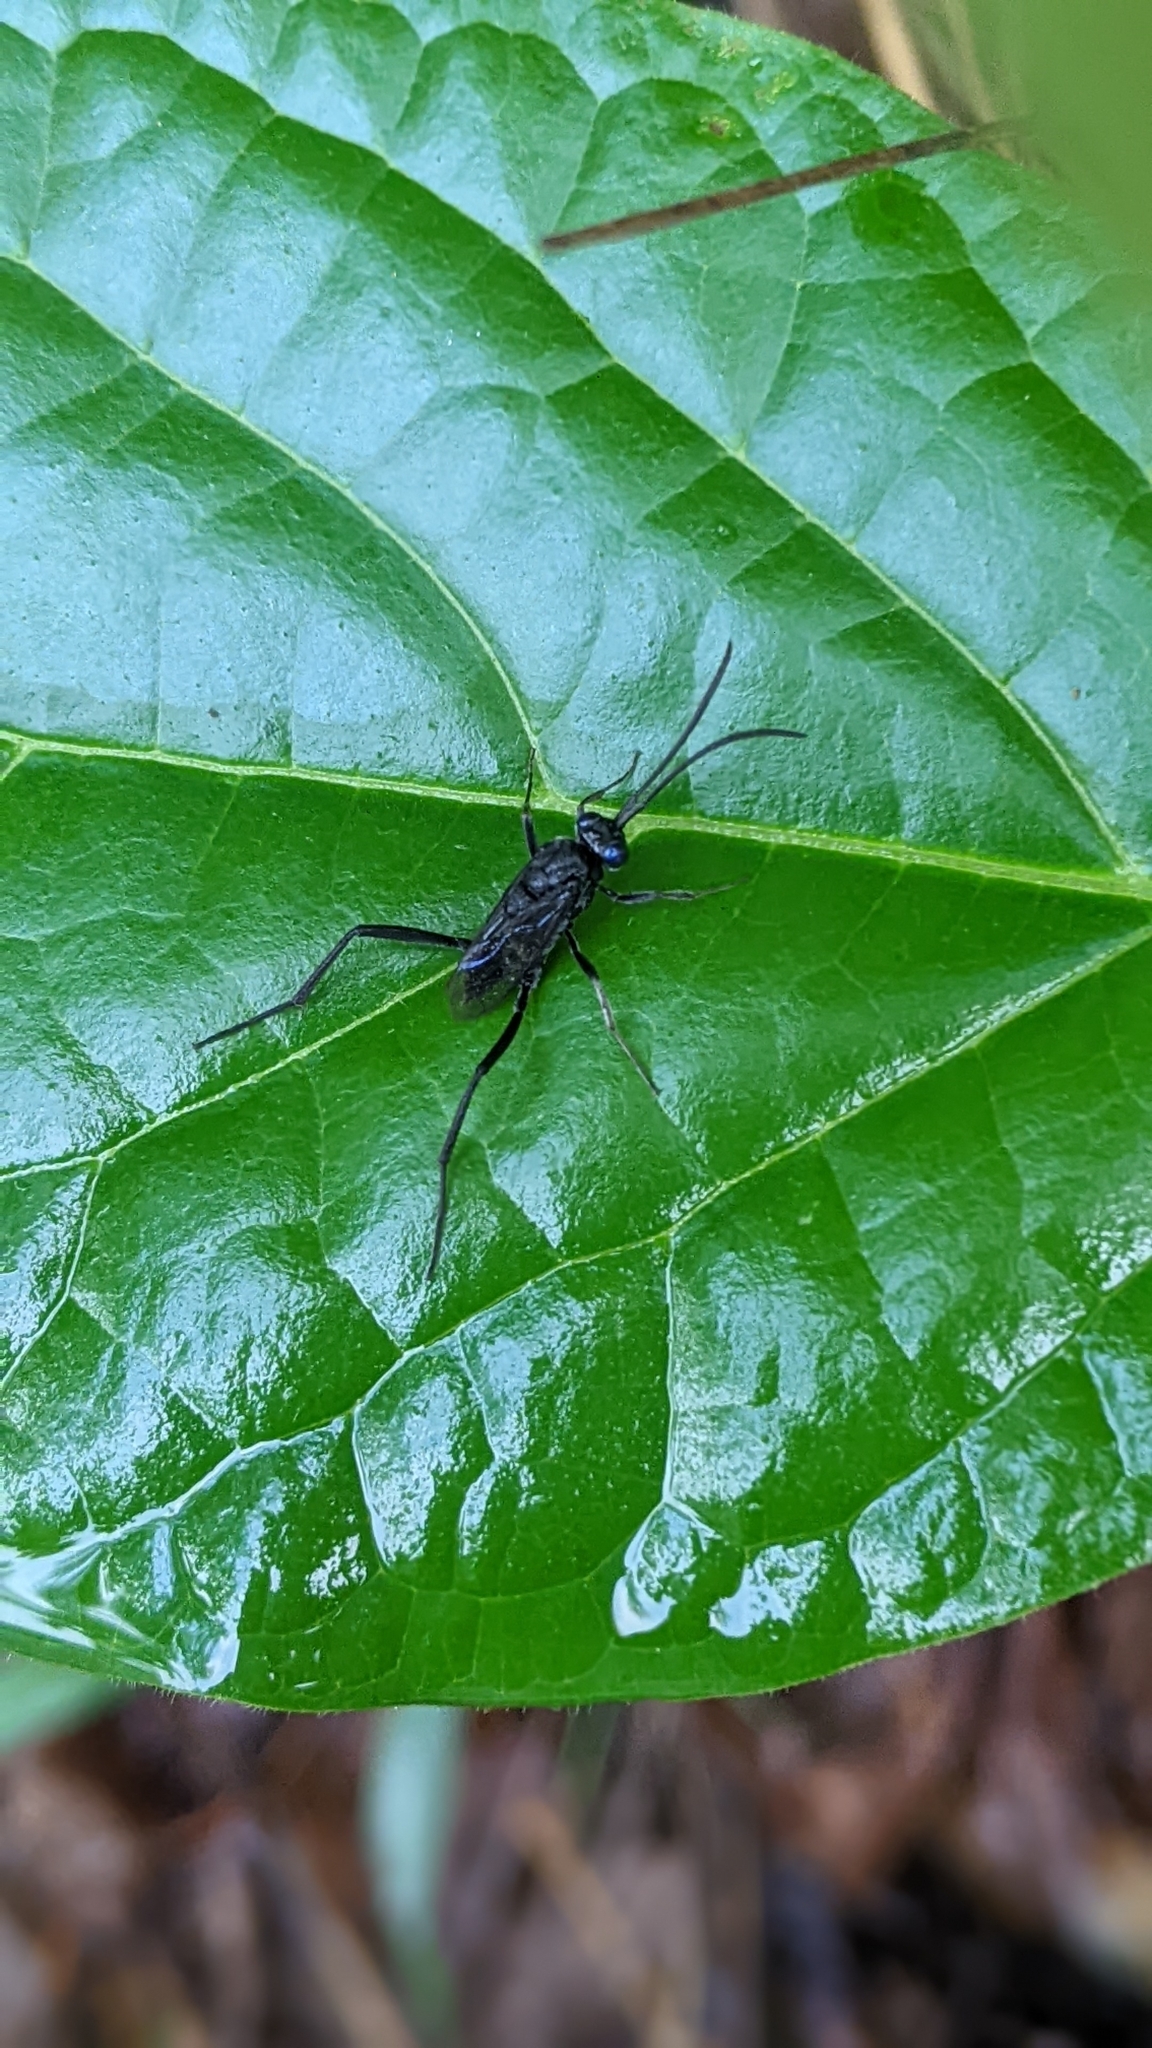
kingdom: Animalia
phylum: Arthropoda
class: Insecta
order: Hymenoptera
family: Evaniidae
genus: Evania
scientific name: Evania appendigaster
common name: Ensign wasp
